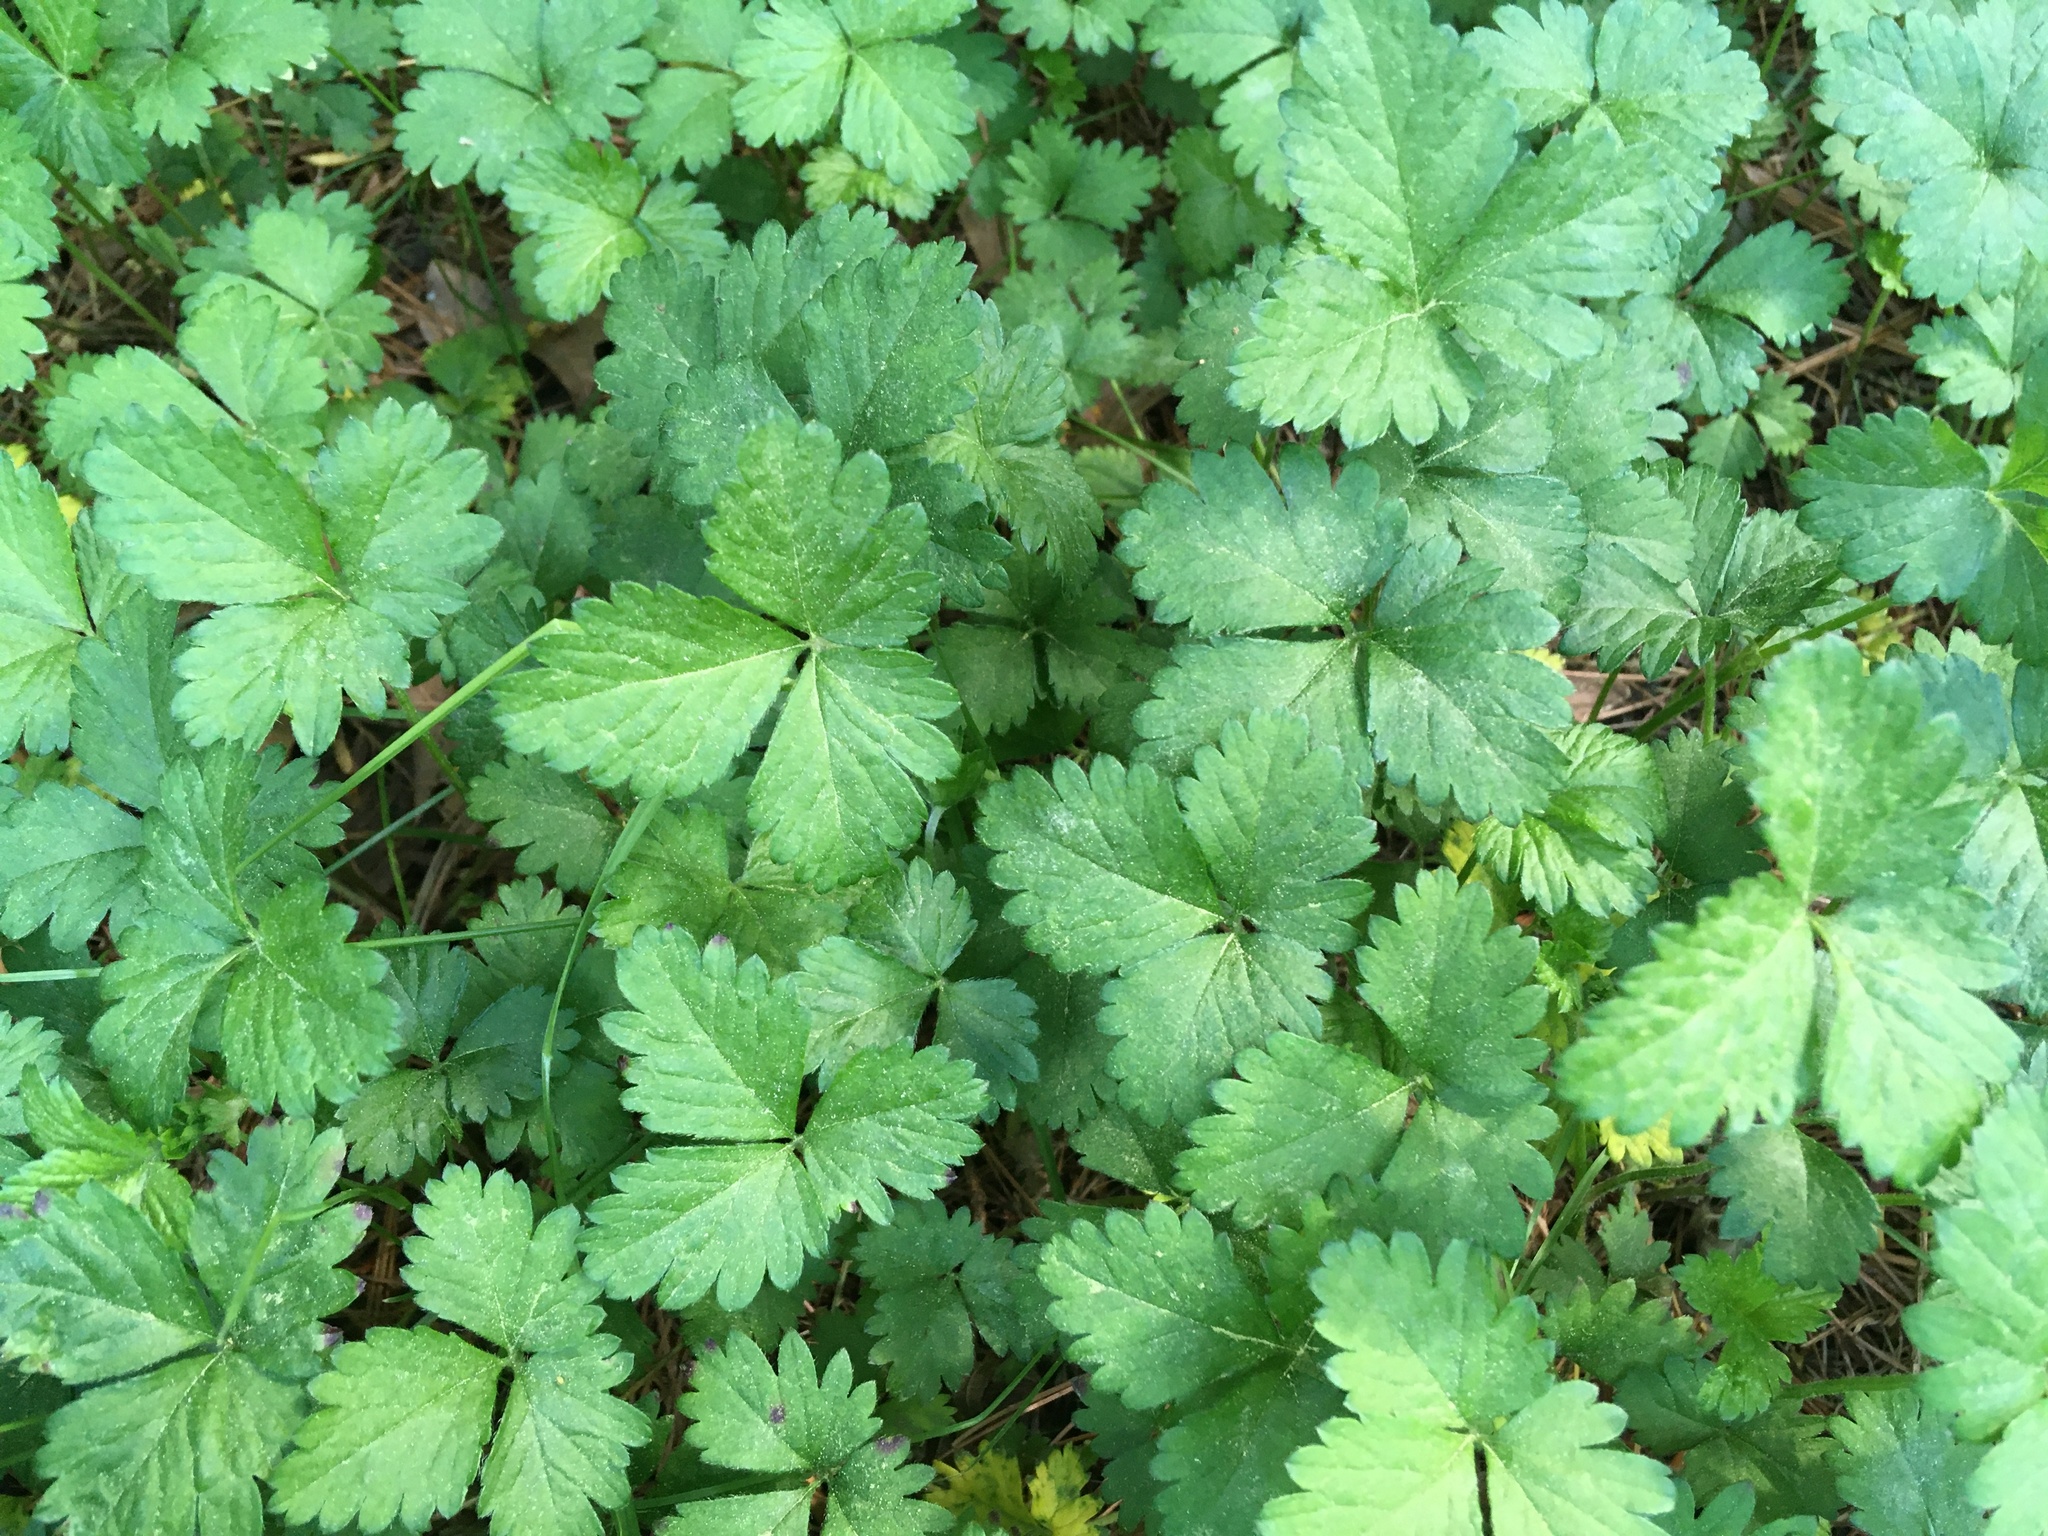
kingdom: Plantae
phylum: Tracheophyta
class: Magnoliopsida
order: Rosales
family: Rosaceae
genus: Potentilla
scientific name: Potentilla indica
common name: Yellow-flowered strawberry
